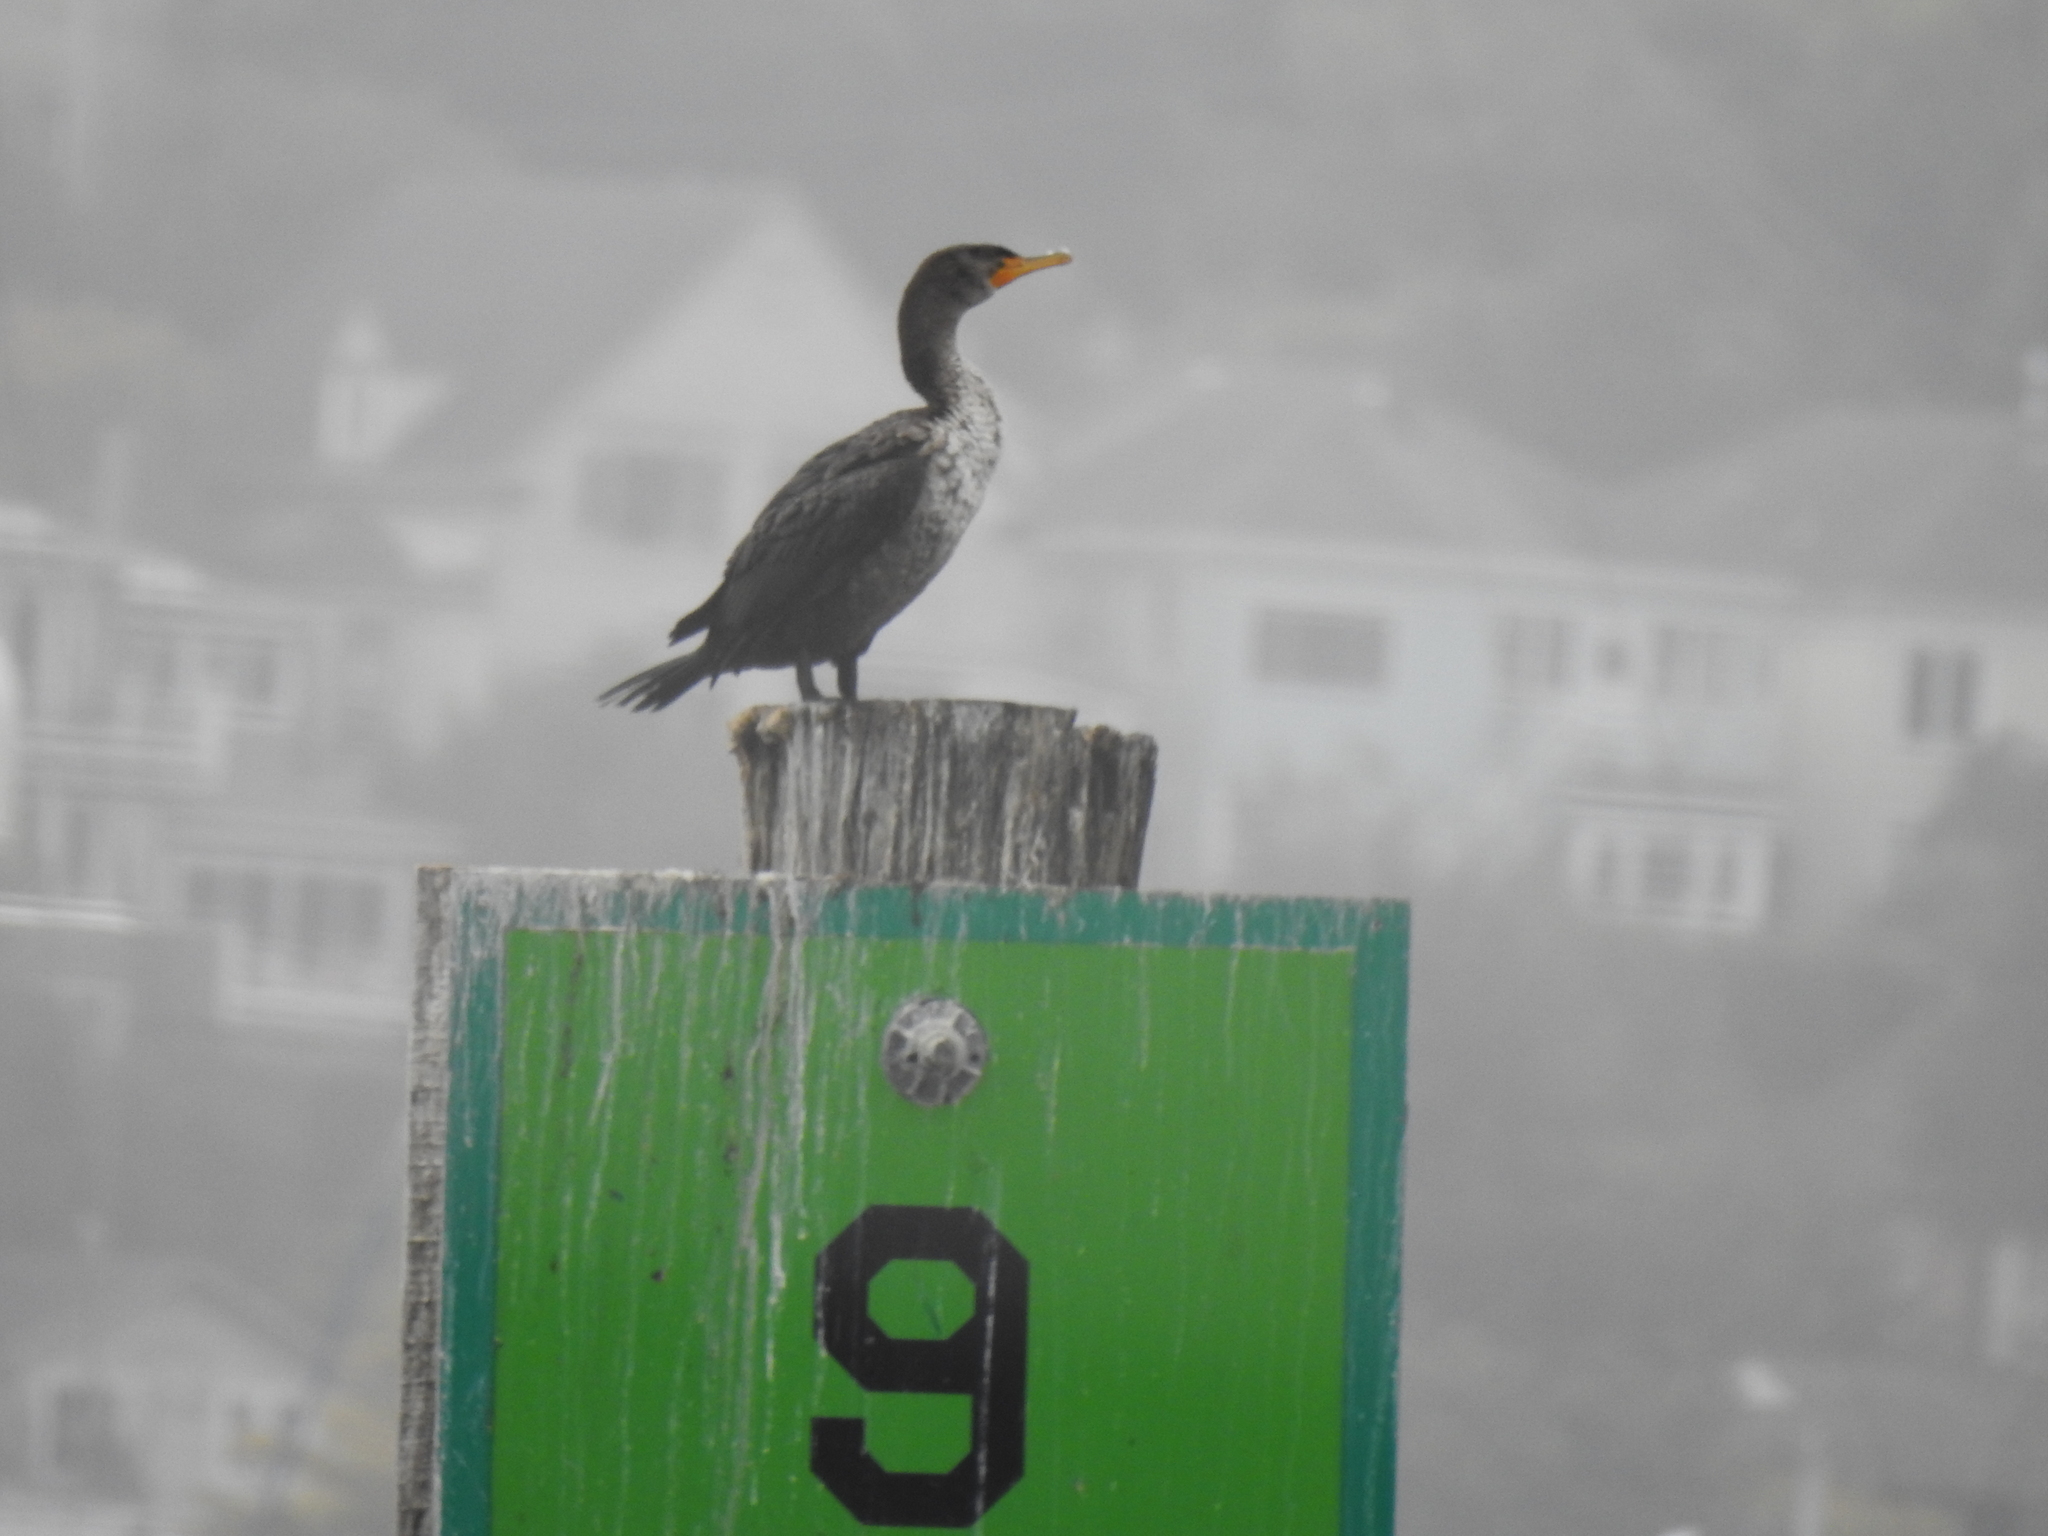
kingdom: Animalia
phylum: Chordata
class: Aves
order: Suliformes
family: Phalacrocoracidae
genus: Phalacrocorax
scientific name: Phalacrocorax auritus
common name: Double-crested cormorant
